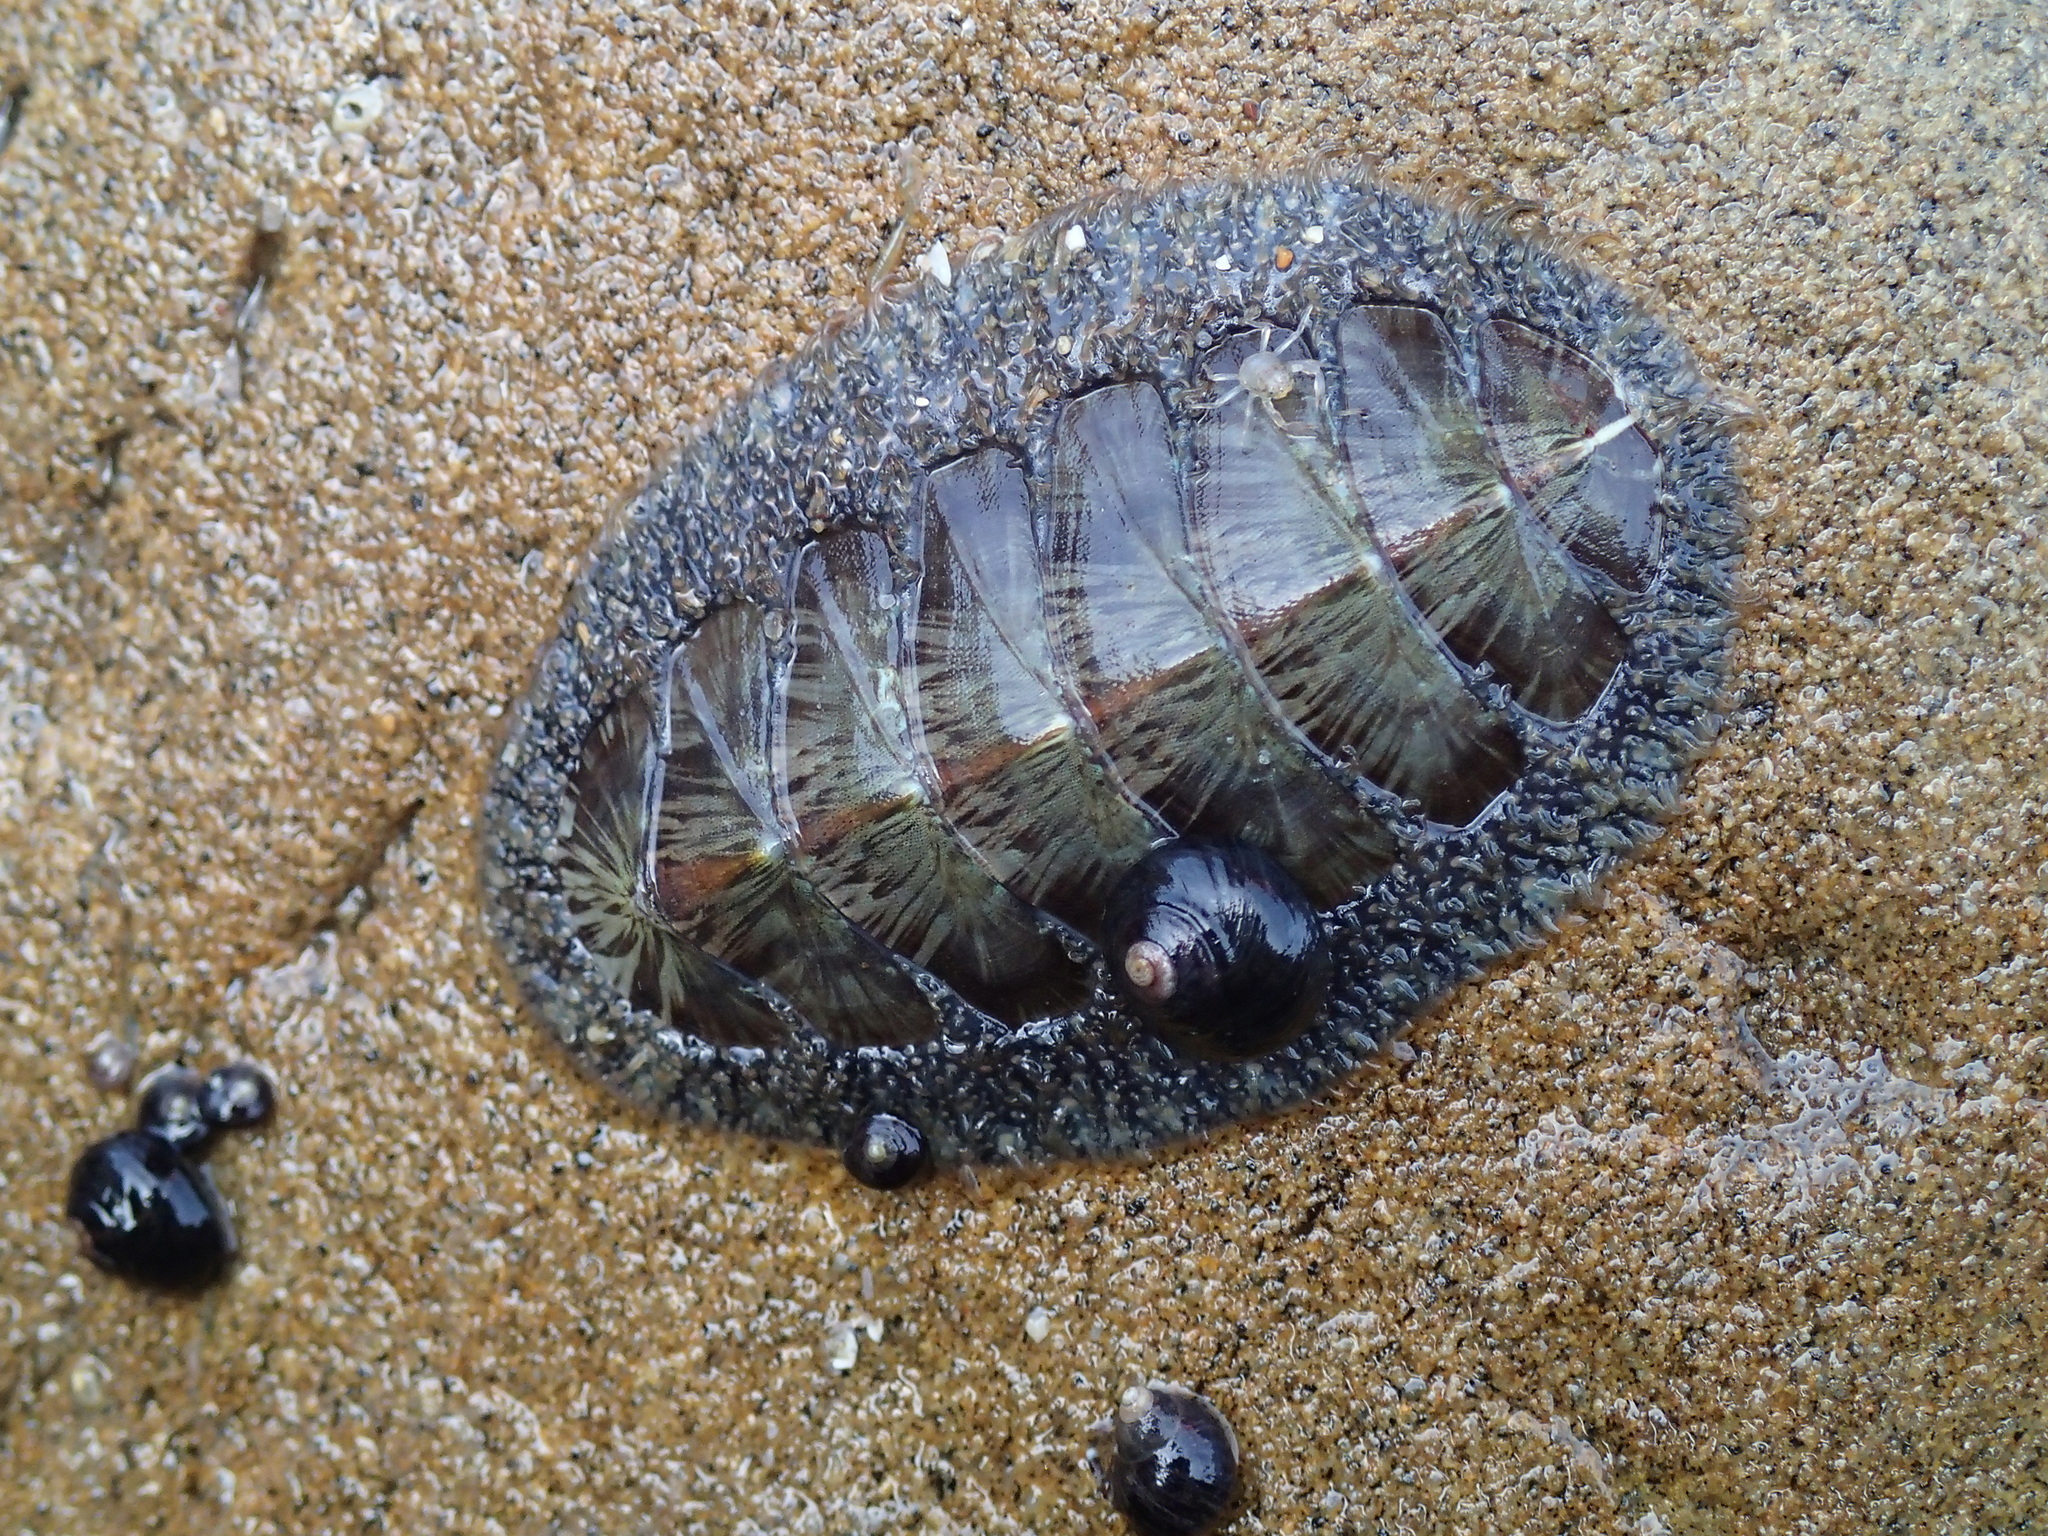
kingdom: Animalia
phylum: Mollusca
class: Polyplacophora
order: Chitonida
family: Mopaliidae
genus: Mopalia
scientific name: Mopalia lignosa
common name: Woody chiton
